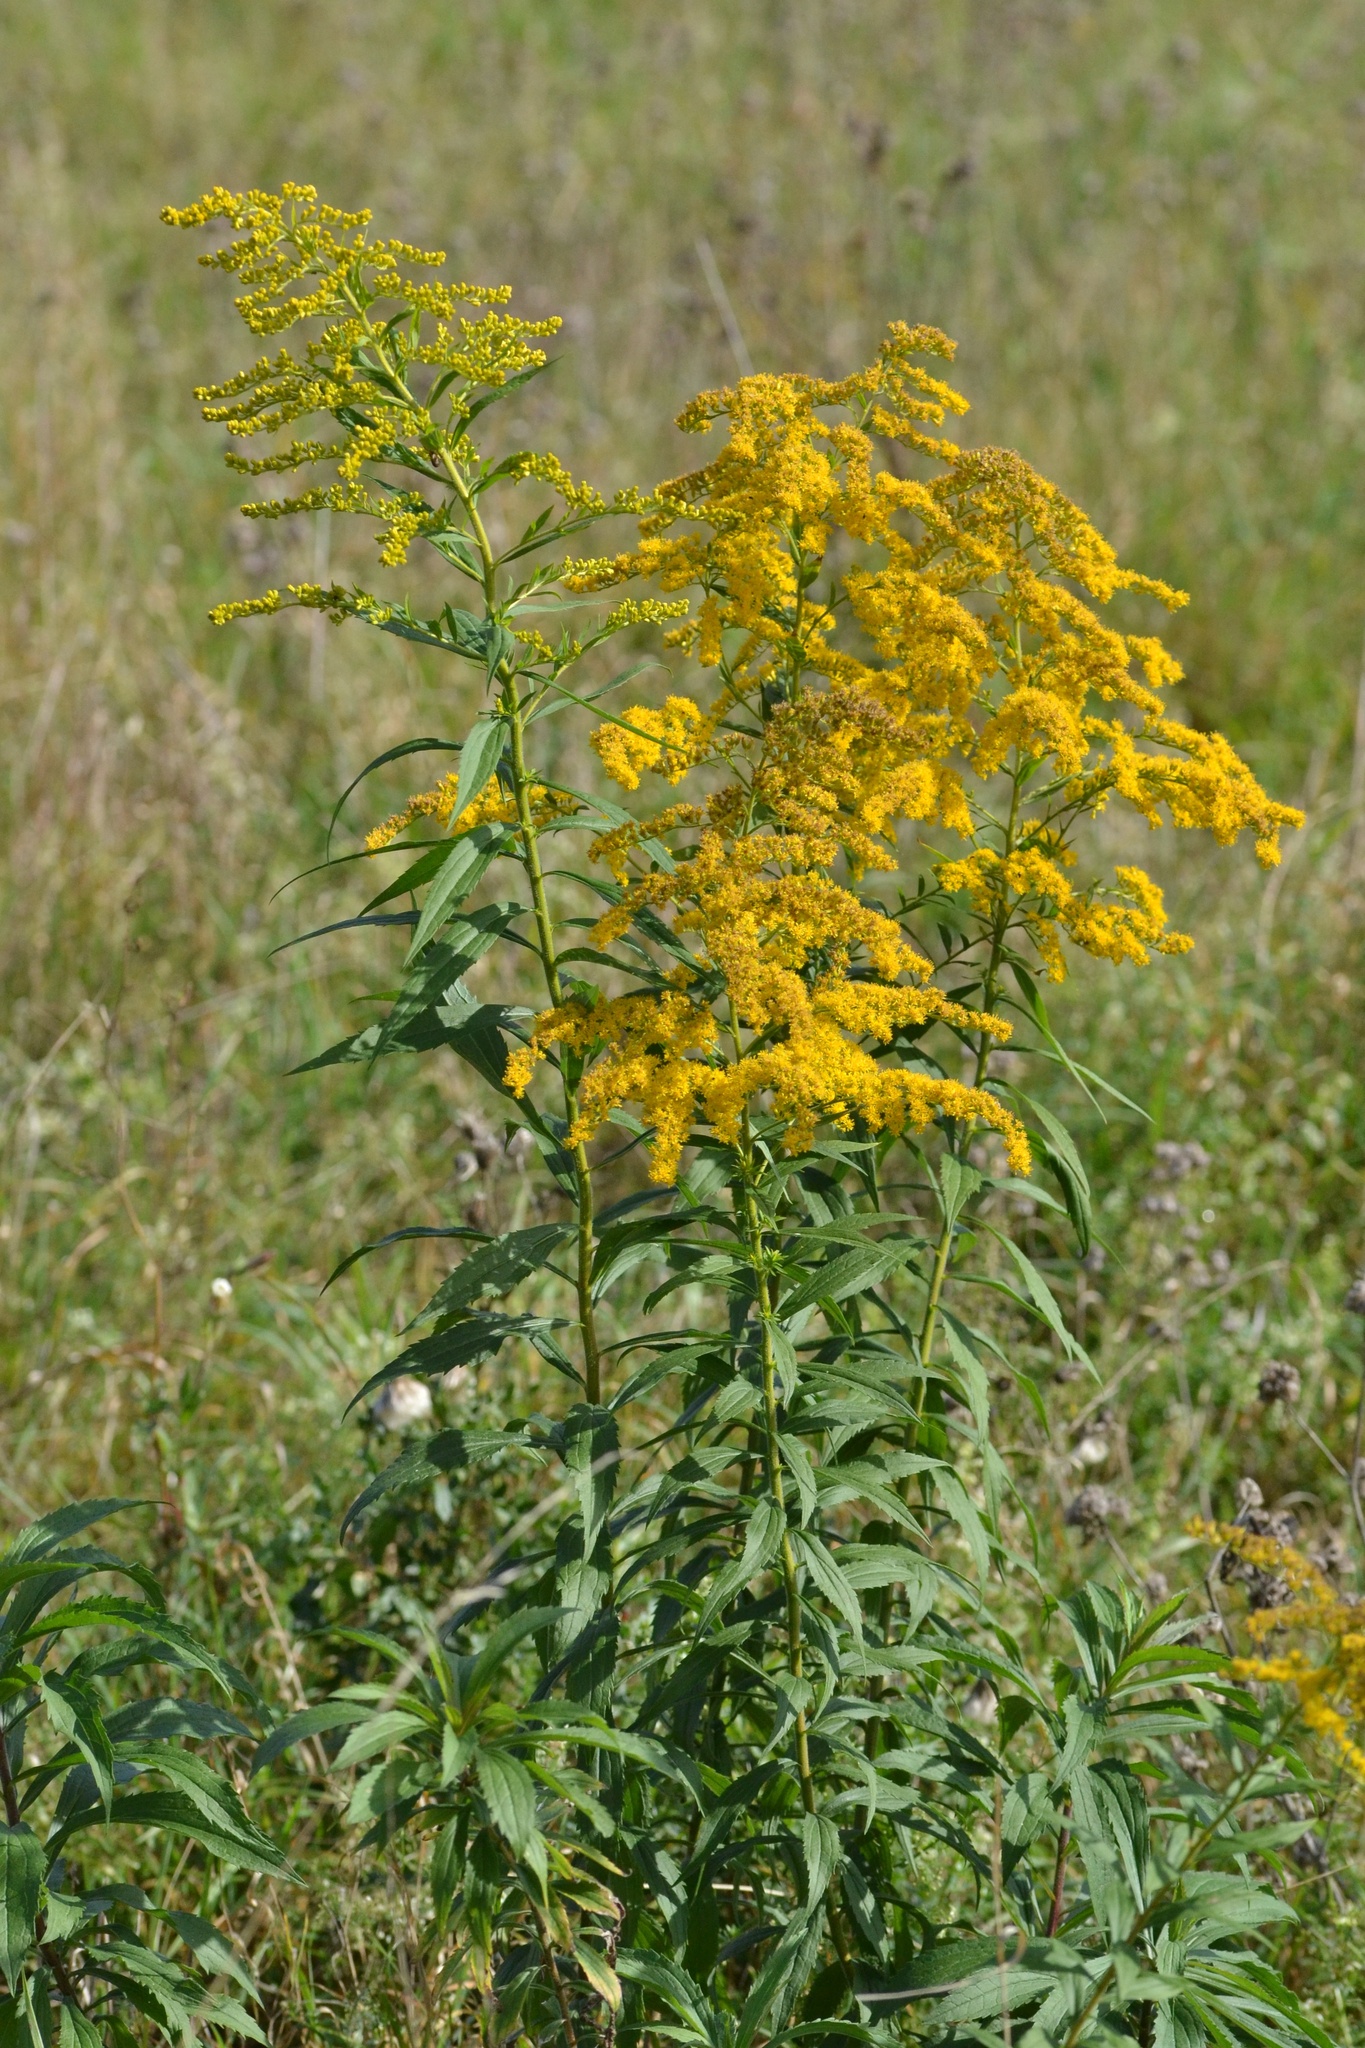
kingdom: Plantae
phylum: Tracheophyta
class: Magnoliopsida
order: Asterales
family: Asteraceae
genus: Solidago
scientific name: Solidago canadensis
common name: Canada goldenrod
